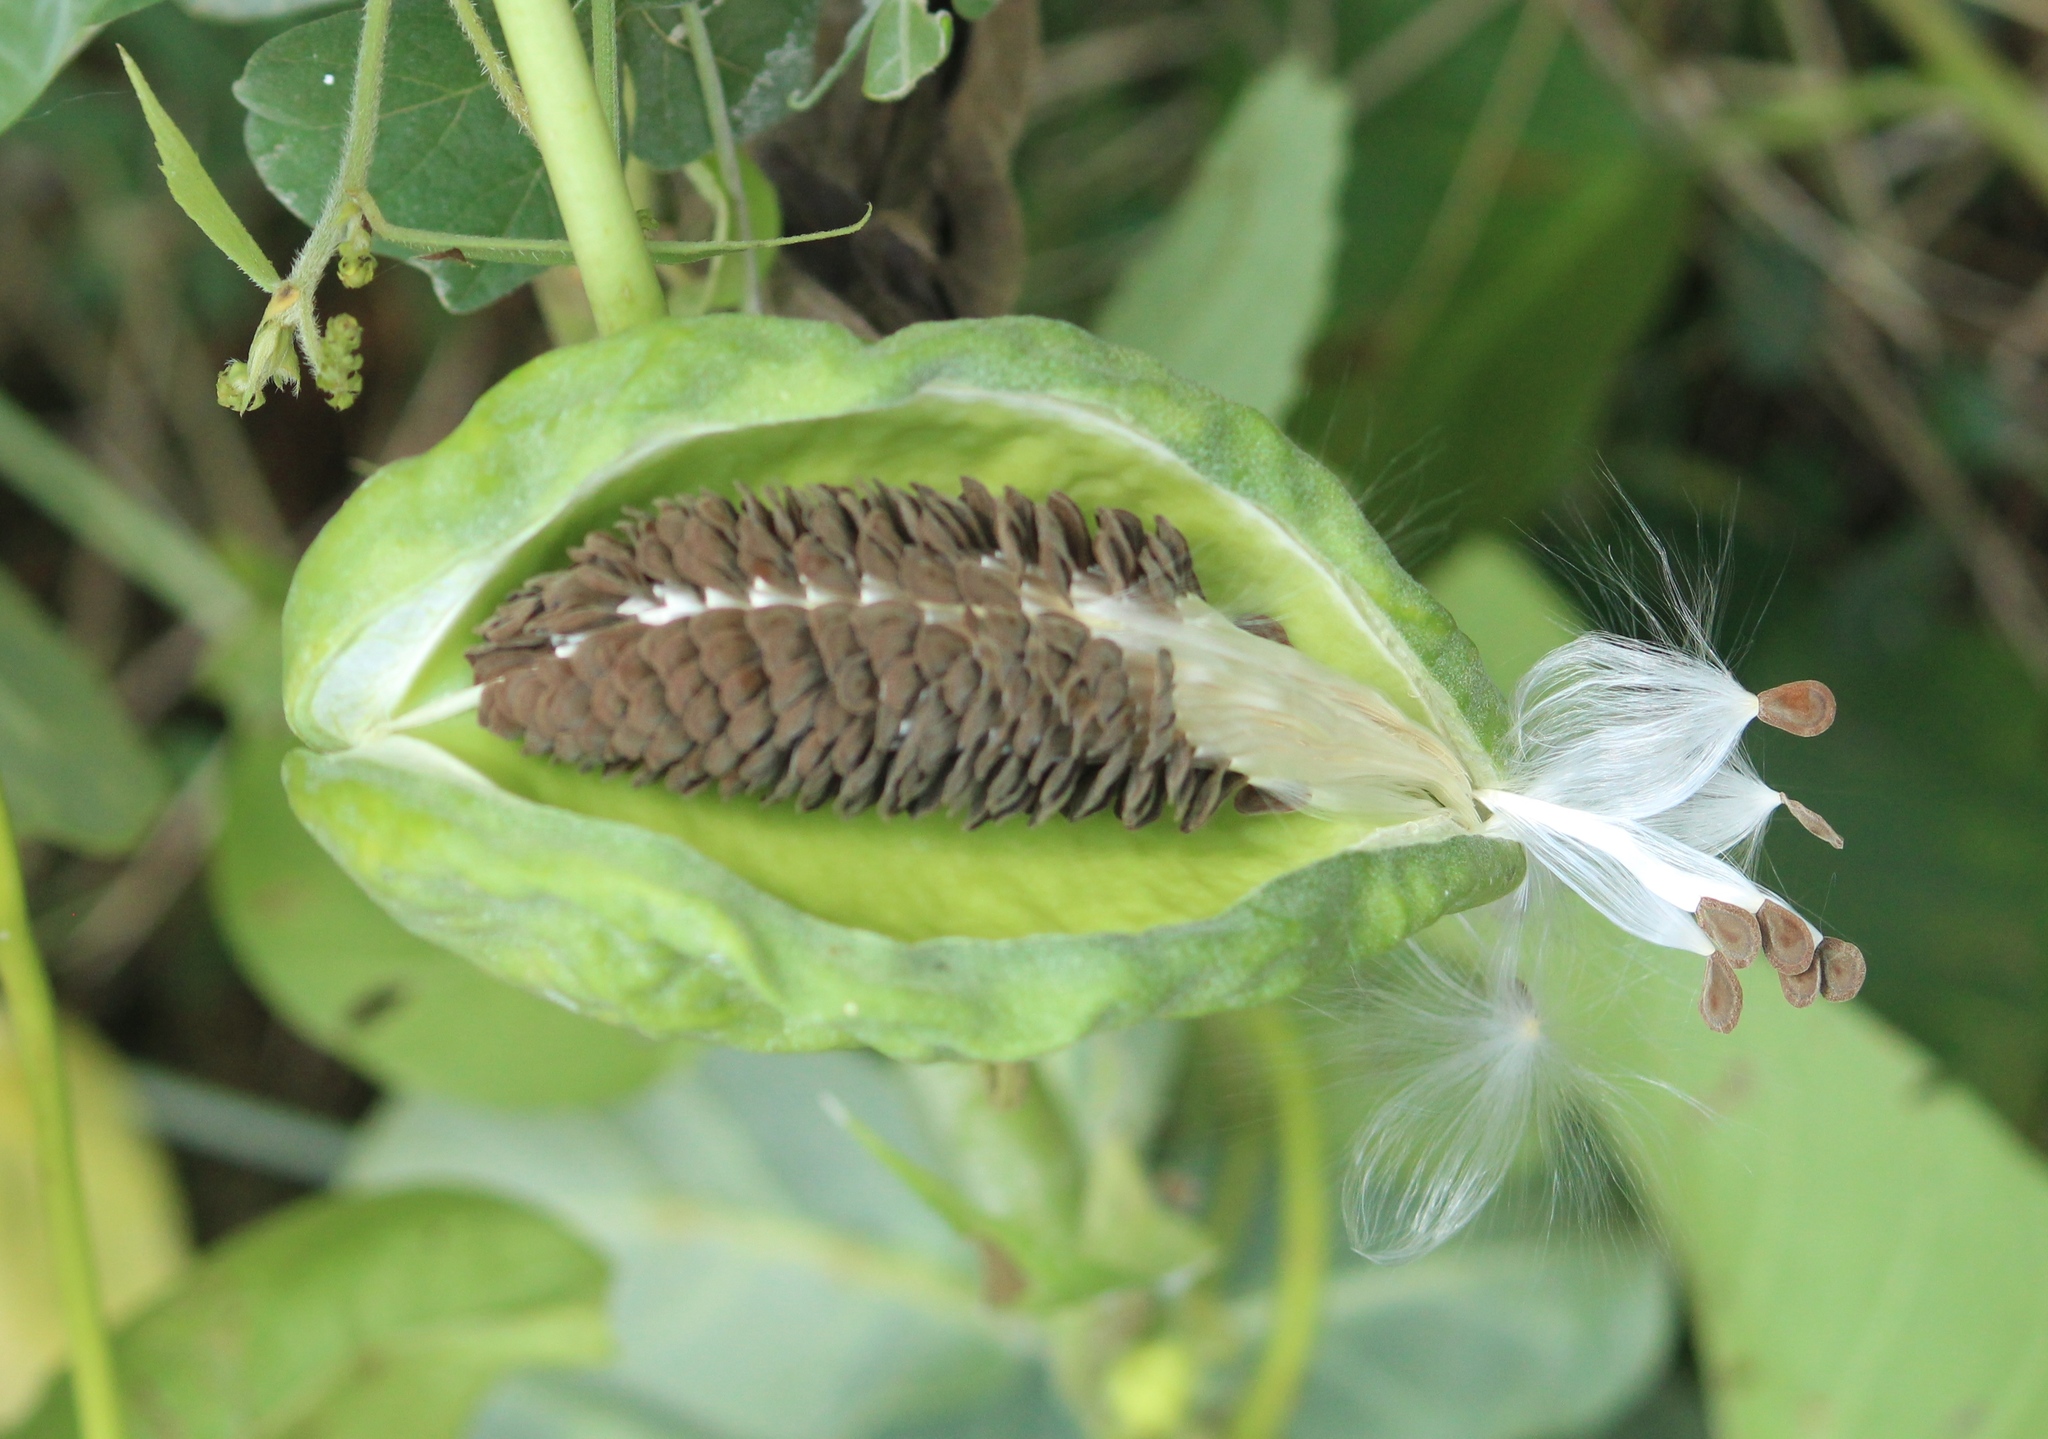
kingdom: Plantae
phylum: Tracheophyta
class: Magnoliopsida
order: Gentianales
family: Apocynaceae
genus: Calotropis
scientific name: Calotropis gigantea
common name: Crown flower
